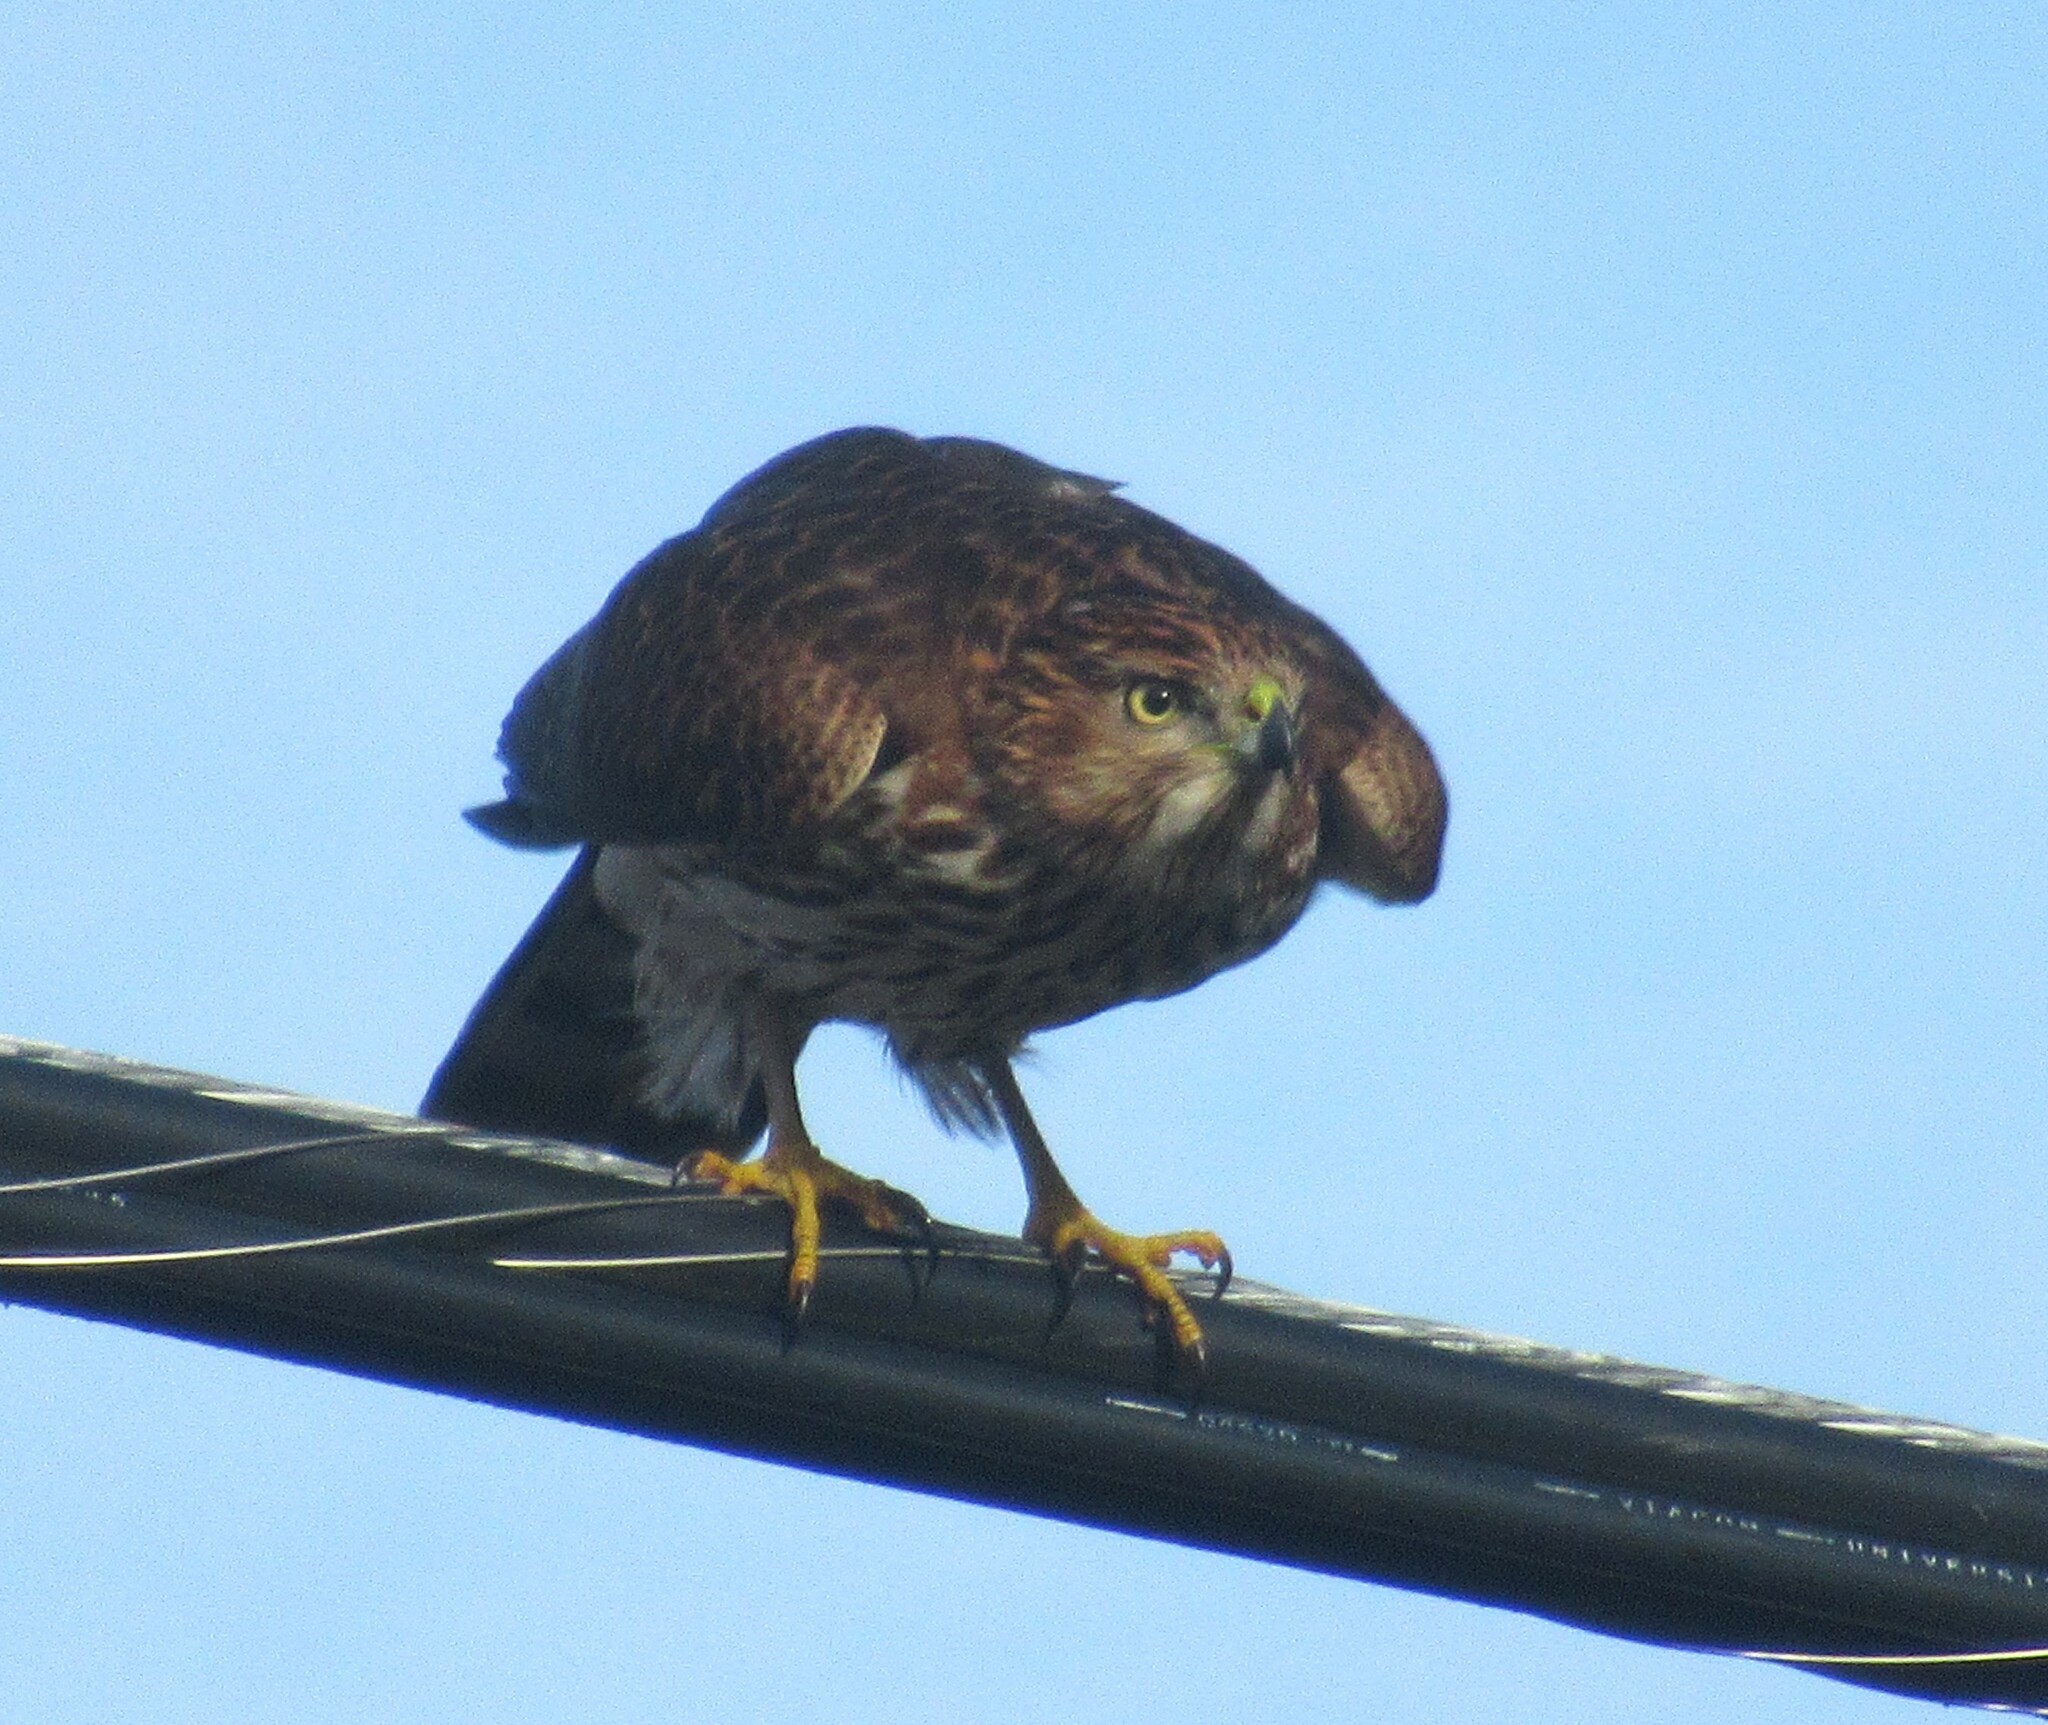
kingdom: Animalia
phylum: Chordata
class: Aves
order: Accipitriformes
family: Accipitridae
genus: Accipiter
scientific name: Accipiter cooperii
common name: Cooper's hawk
